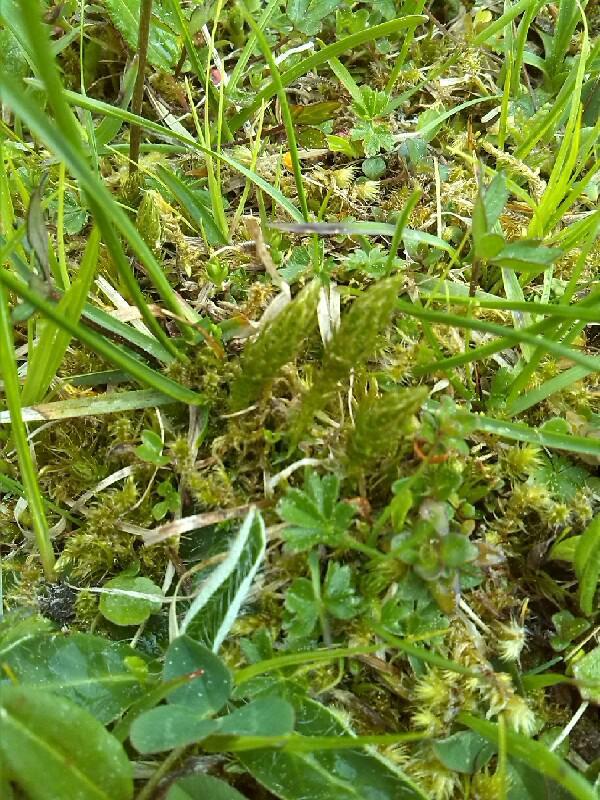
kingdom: Plantae
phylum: Tracheophyta
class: Lycopodiopsida
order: Selaginellales
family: Selaginellaceae
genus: Selaginella
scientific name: Selaginella selaginoides
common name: Prickly mountain-moss
